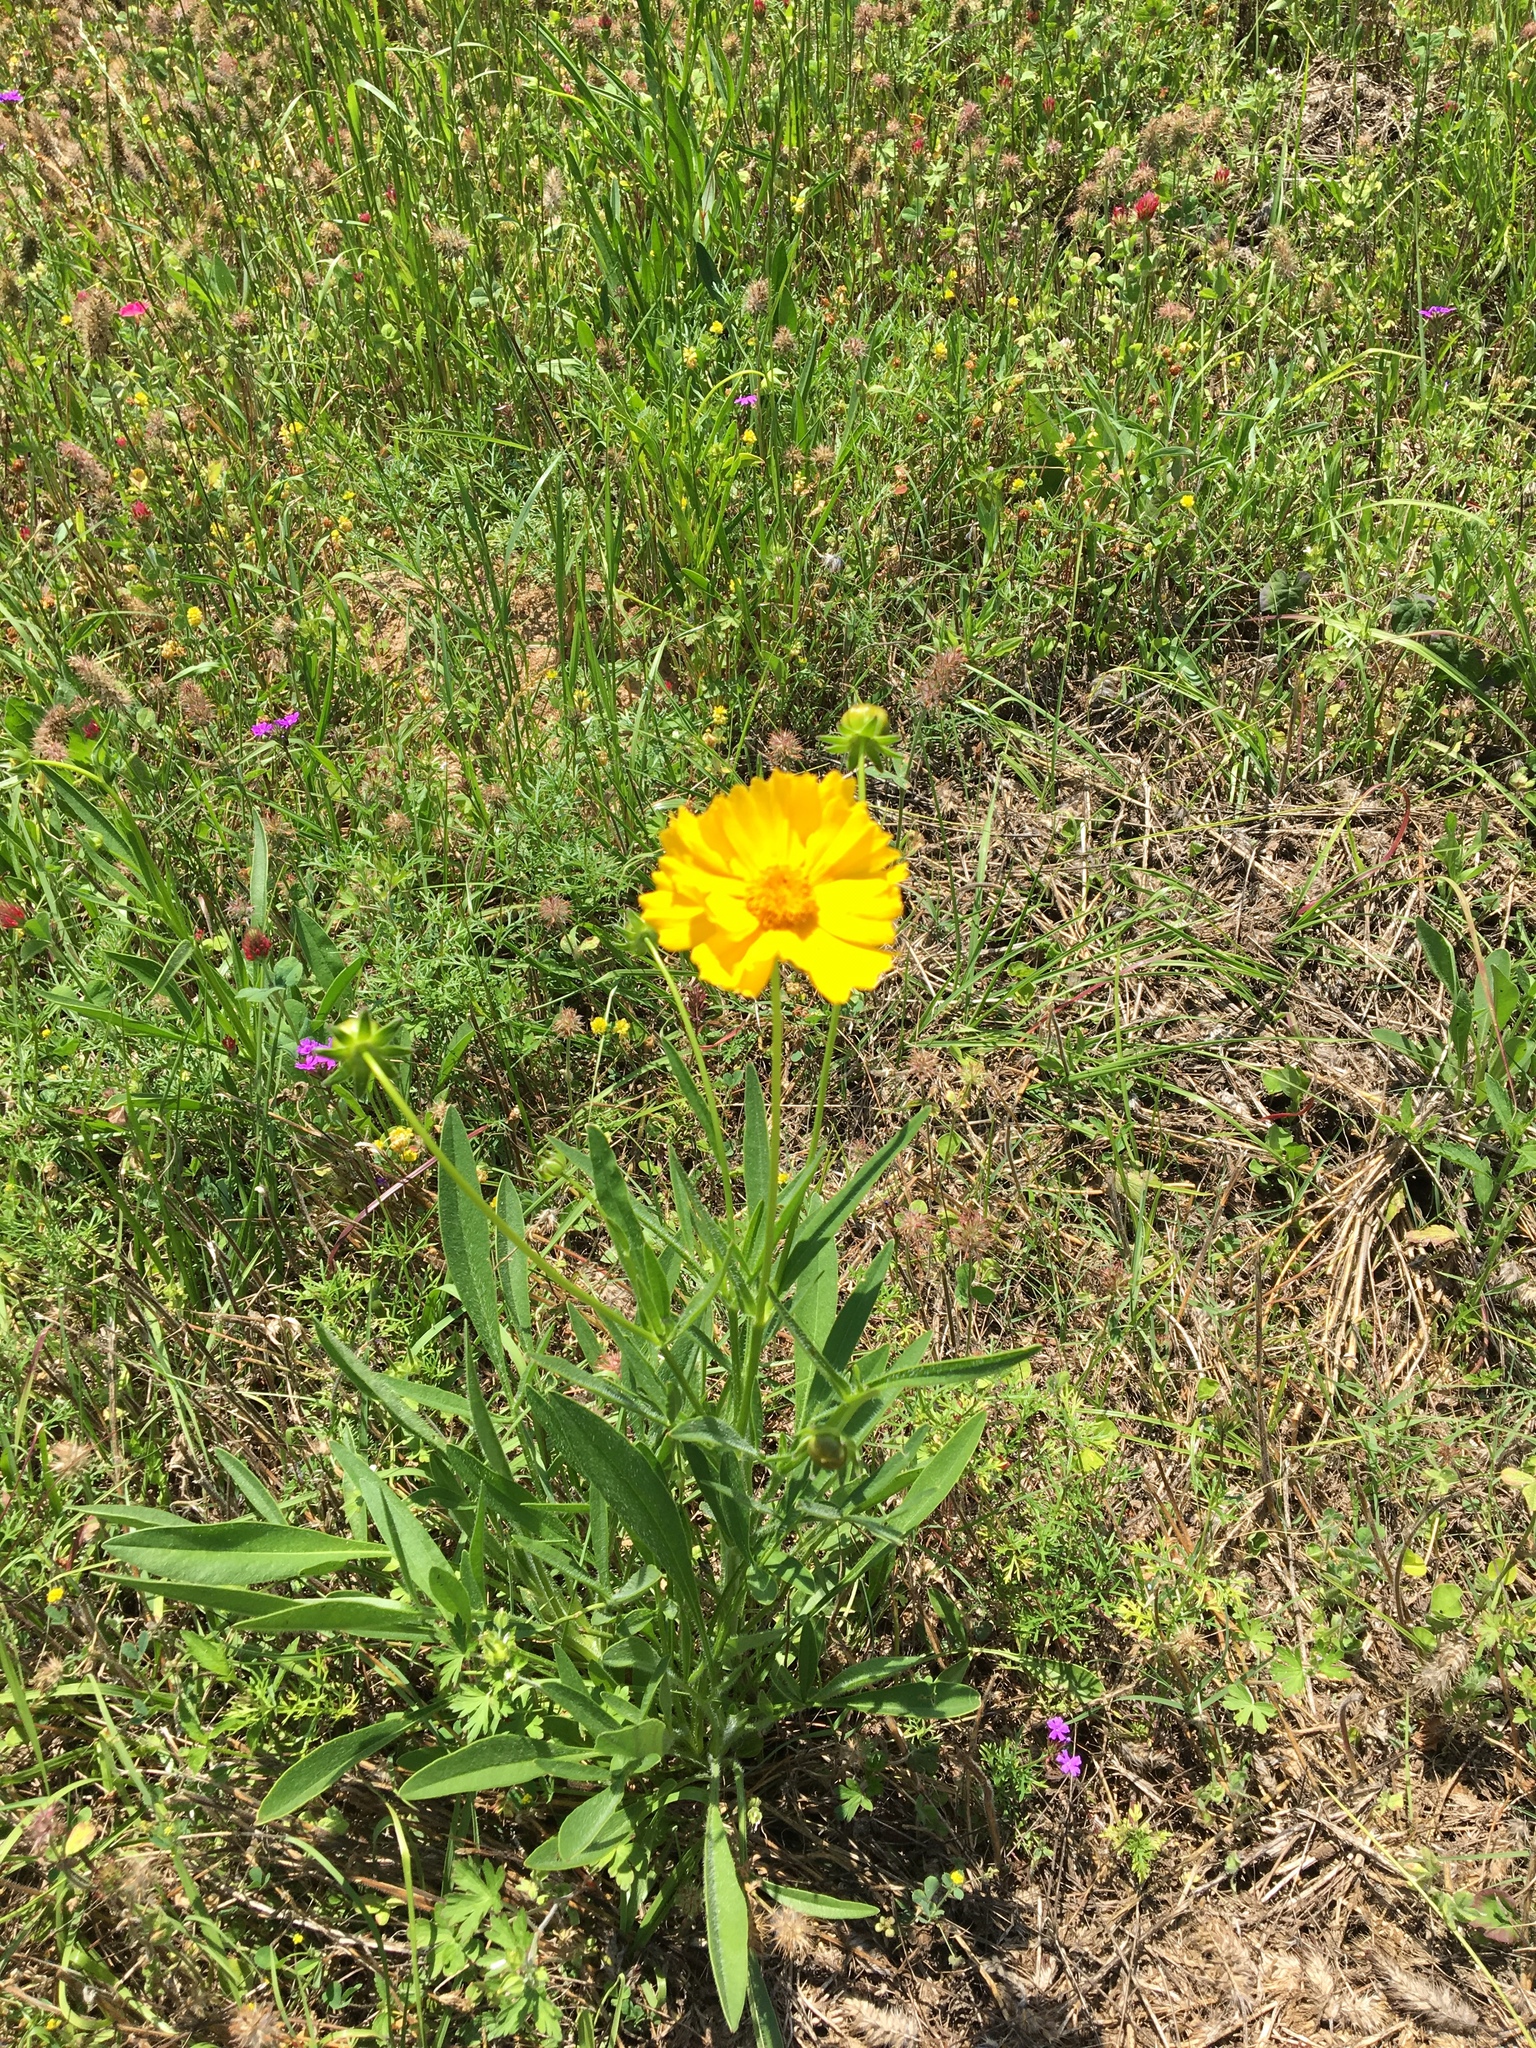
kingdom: Plantae
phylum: Tracheophyta
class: Magnoliopsida
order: Asterales
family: Asteraceae
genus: Coreopsis
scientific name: Coreopsis lanceolata
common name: Garden coreopsis
